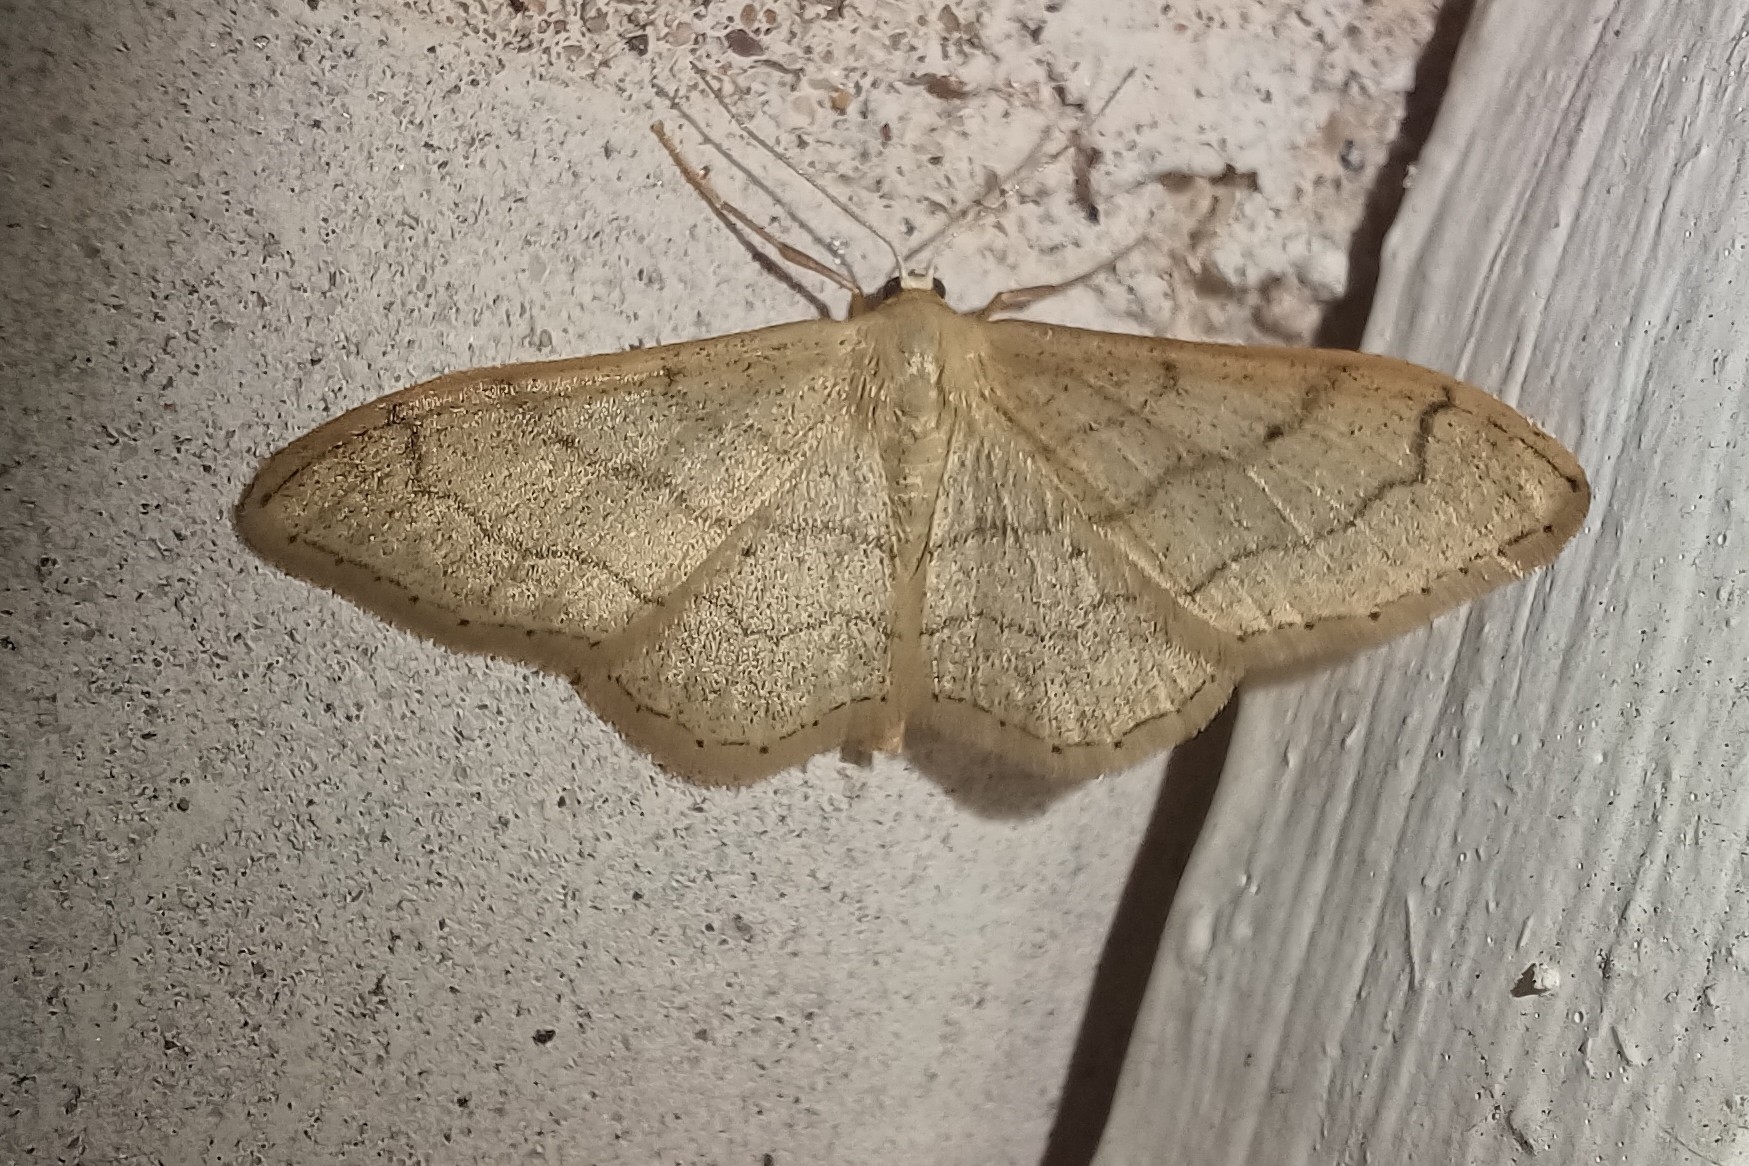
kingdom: Animalia
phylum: Arthropoda
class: Insecta
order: Lepidoptera
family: Geometridae
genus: Idaea
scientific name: Idaea aversata
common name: Riband wave
